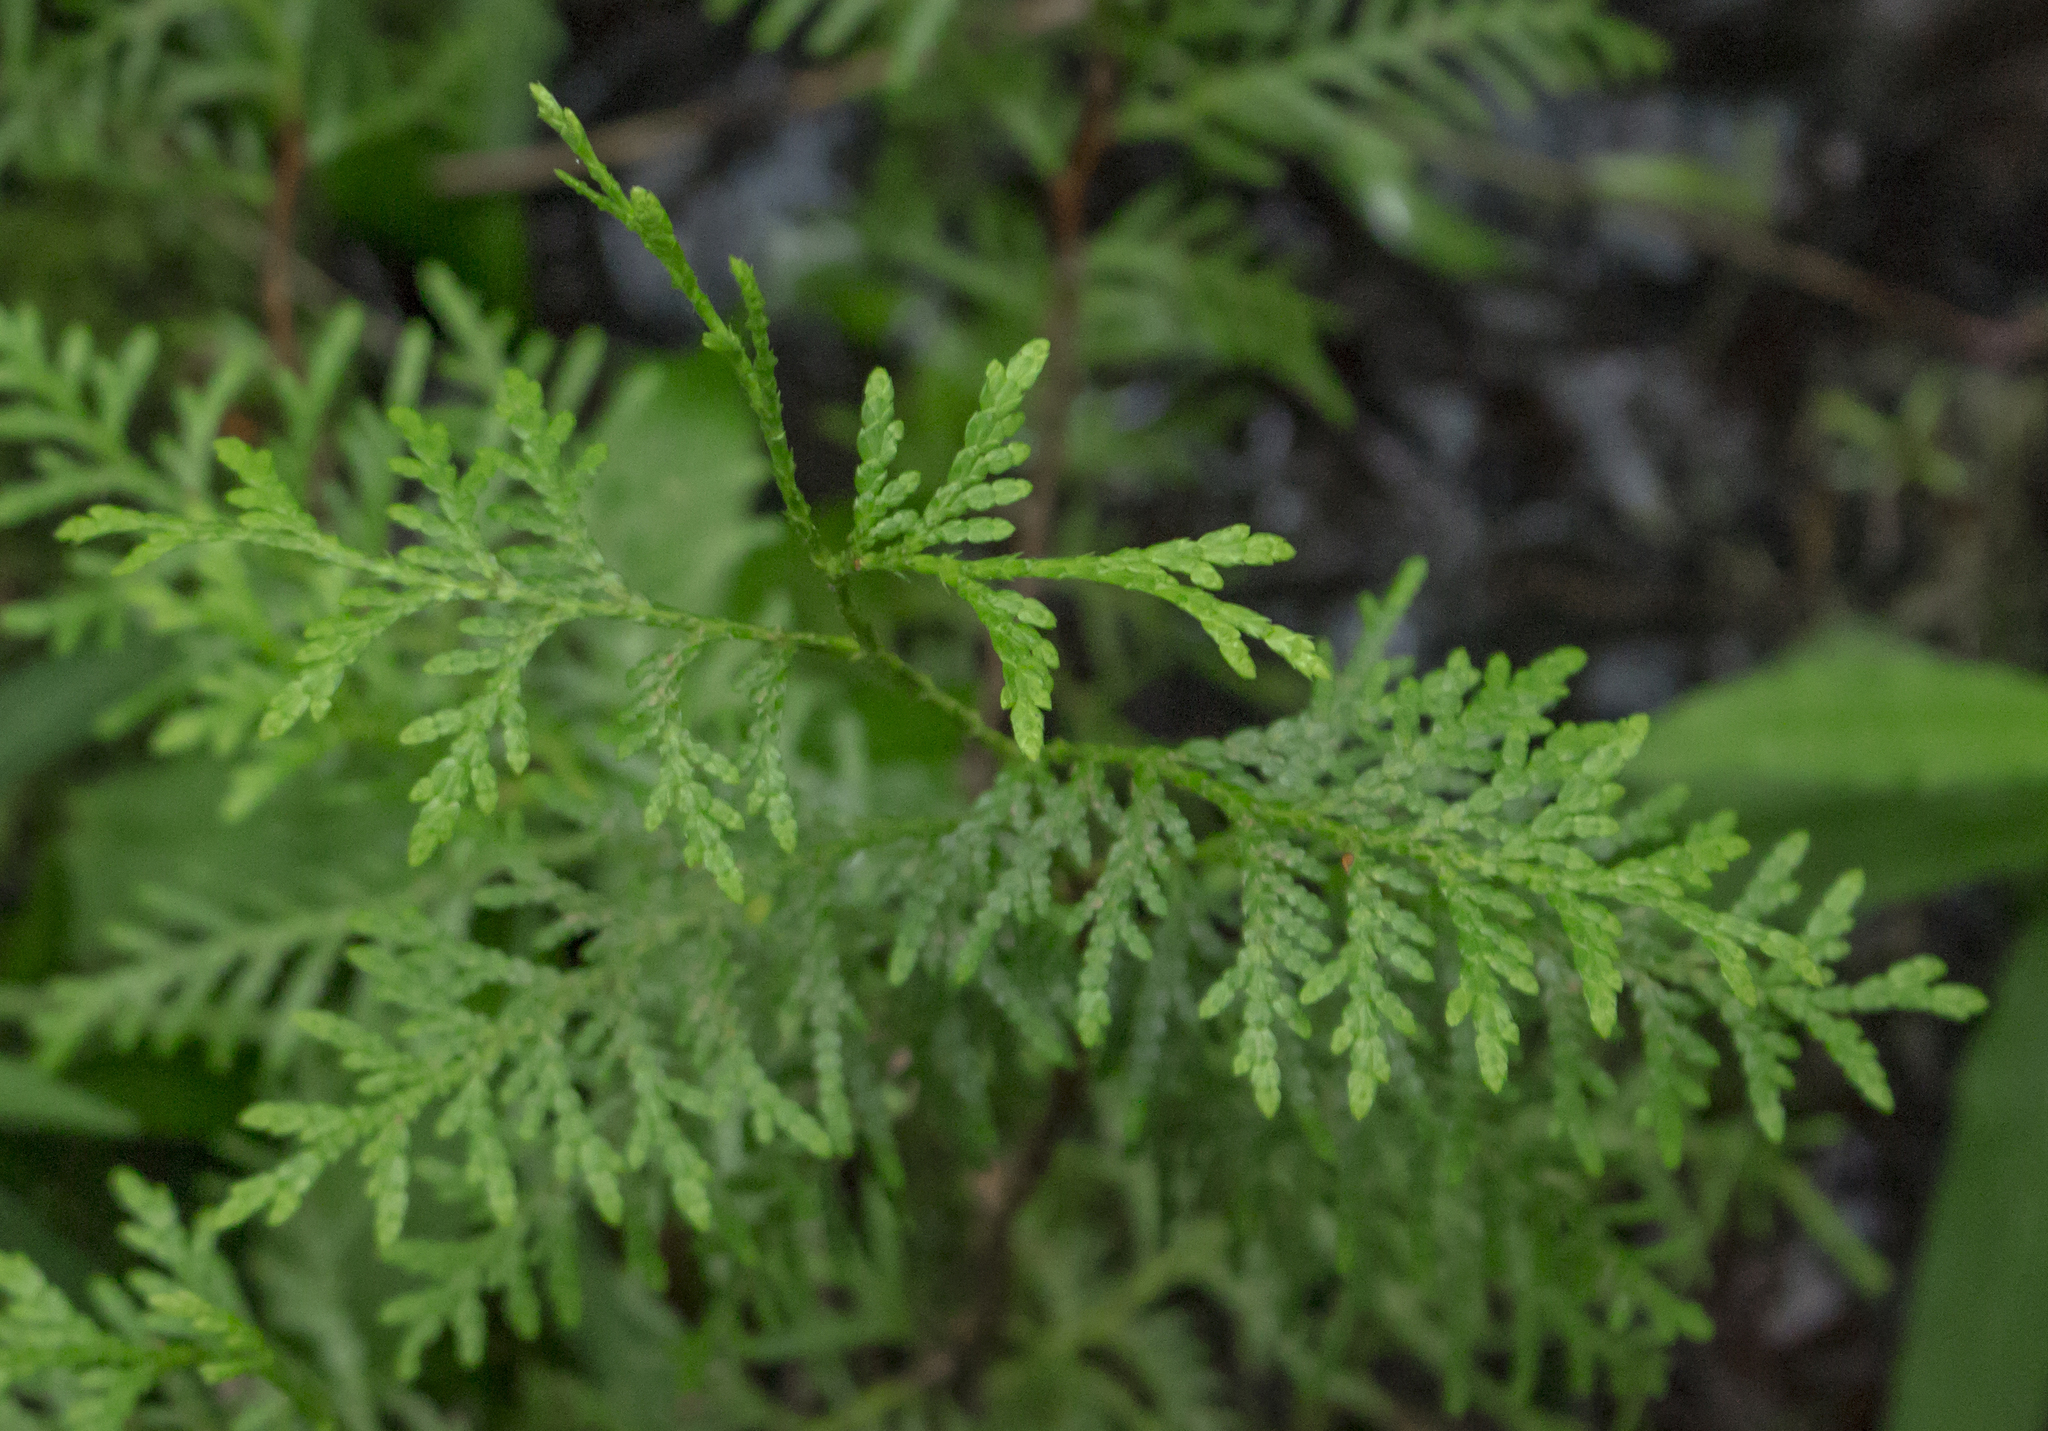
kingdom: Plantae
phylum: Tracheophyta
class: Pinopsida
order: Pinales
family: Cupressaceae
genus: Thuja
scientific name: Thuja occidentalis
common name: Northern white-cedar
